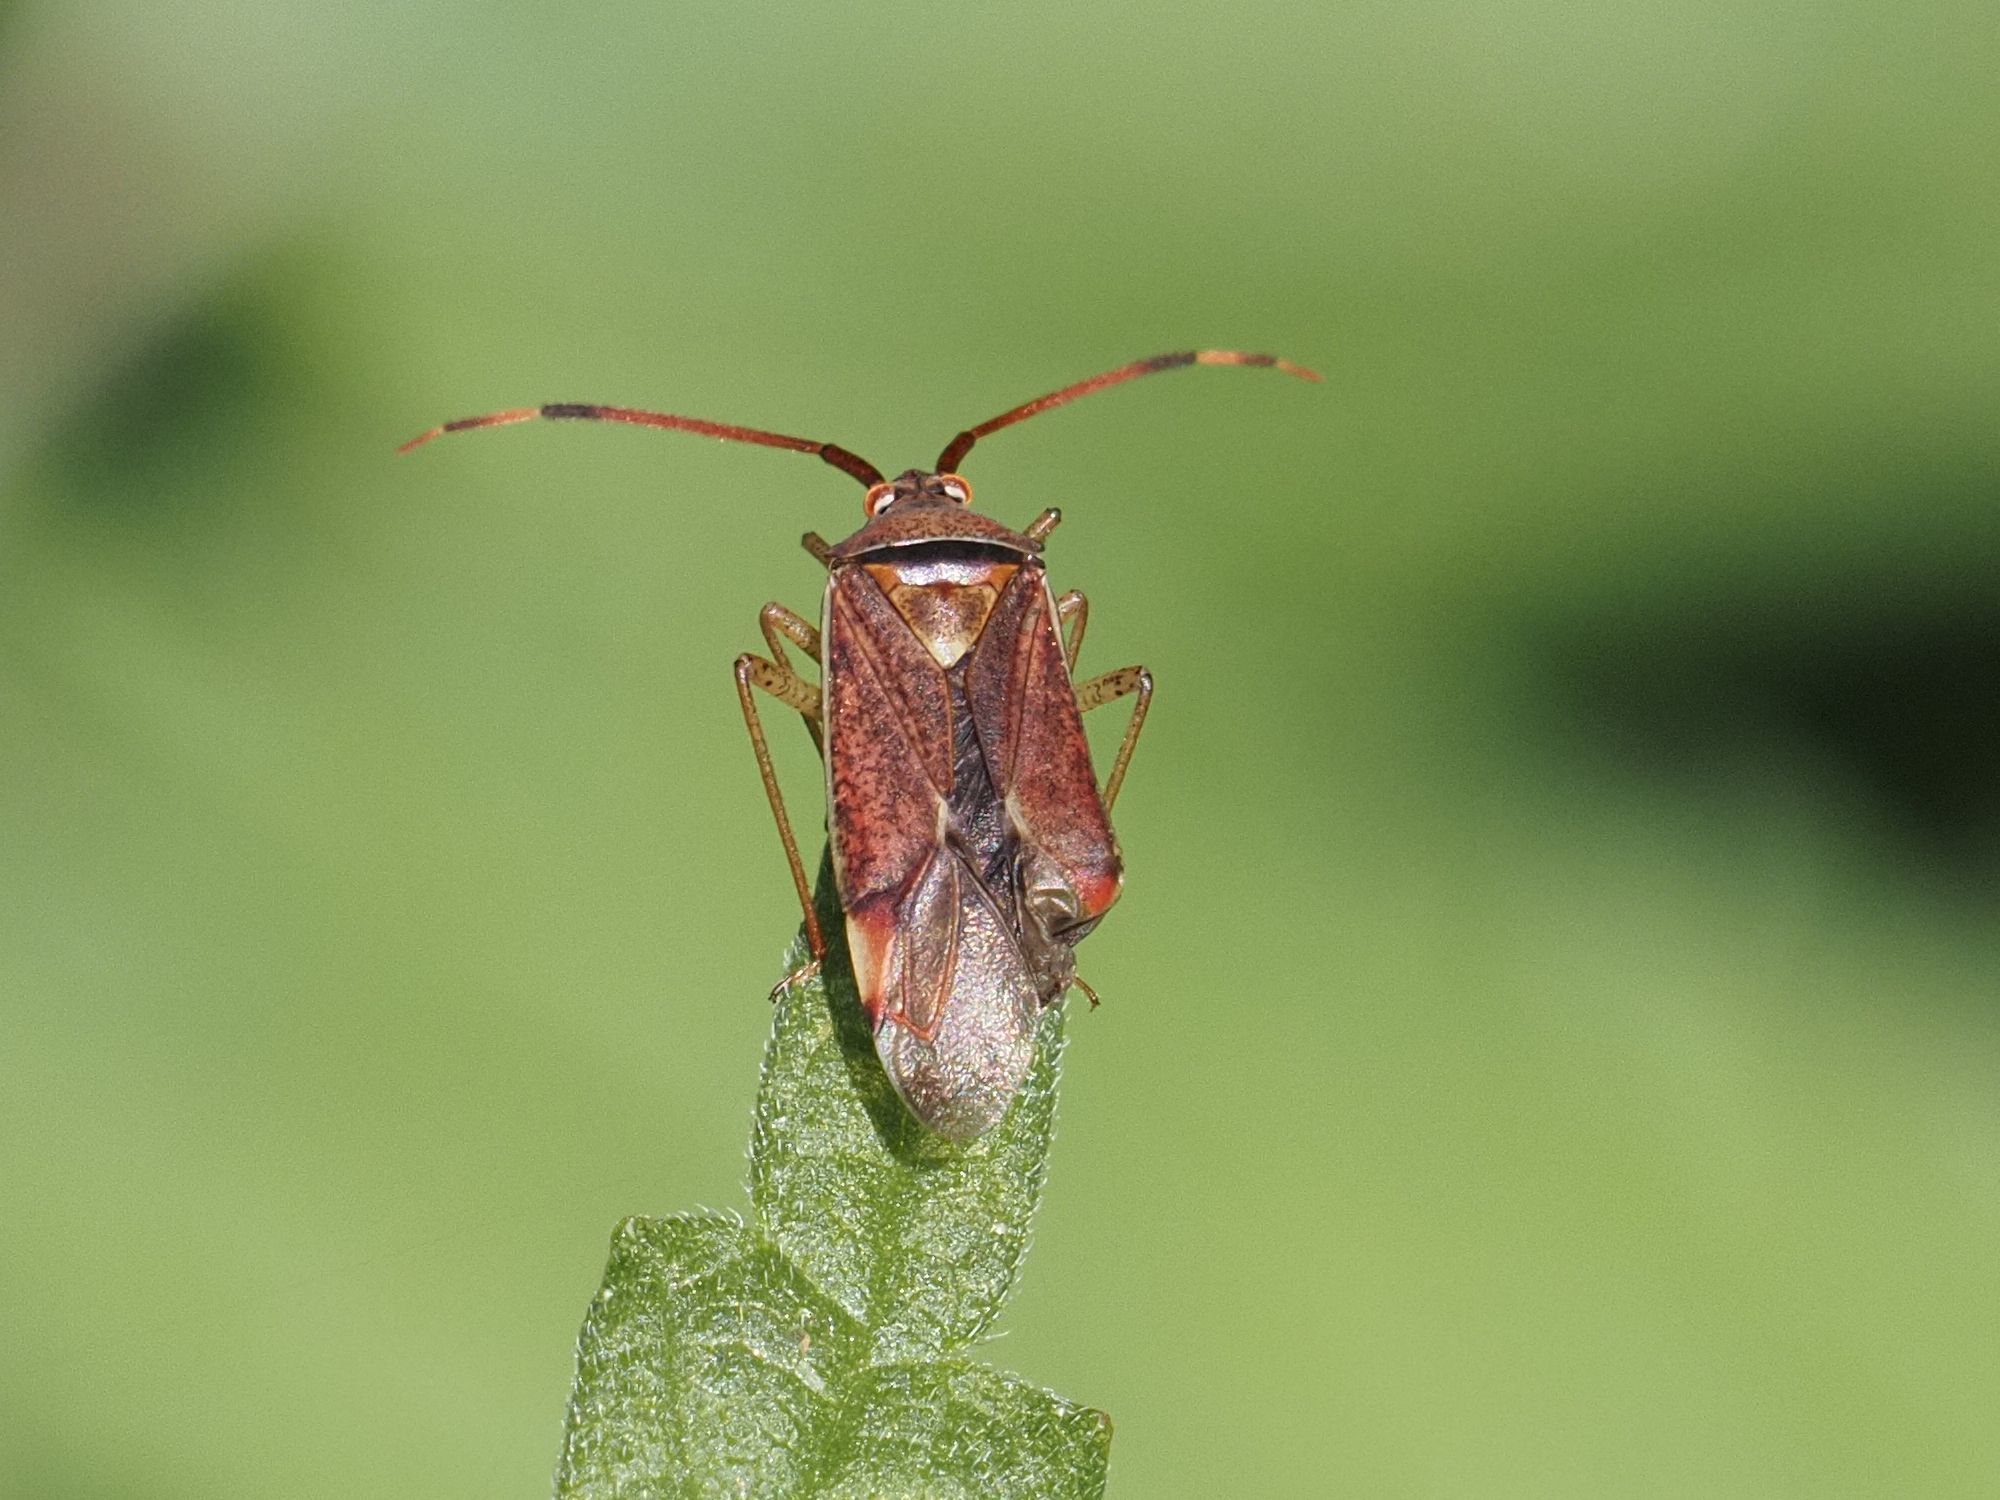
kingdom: Animalia
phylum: Arthropoda
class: Insecta
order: Hemiptera
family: Miridae
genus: Pantilius
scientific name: Pantilius tunicatus
